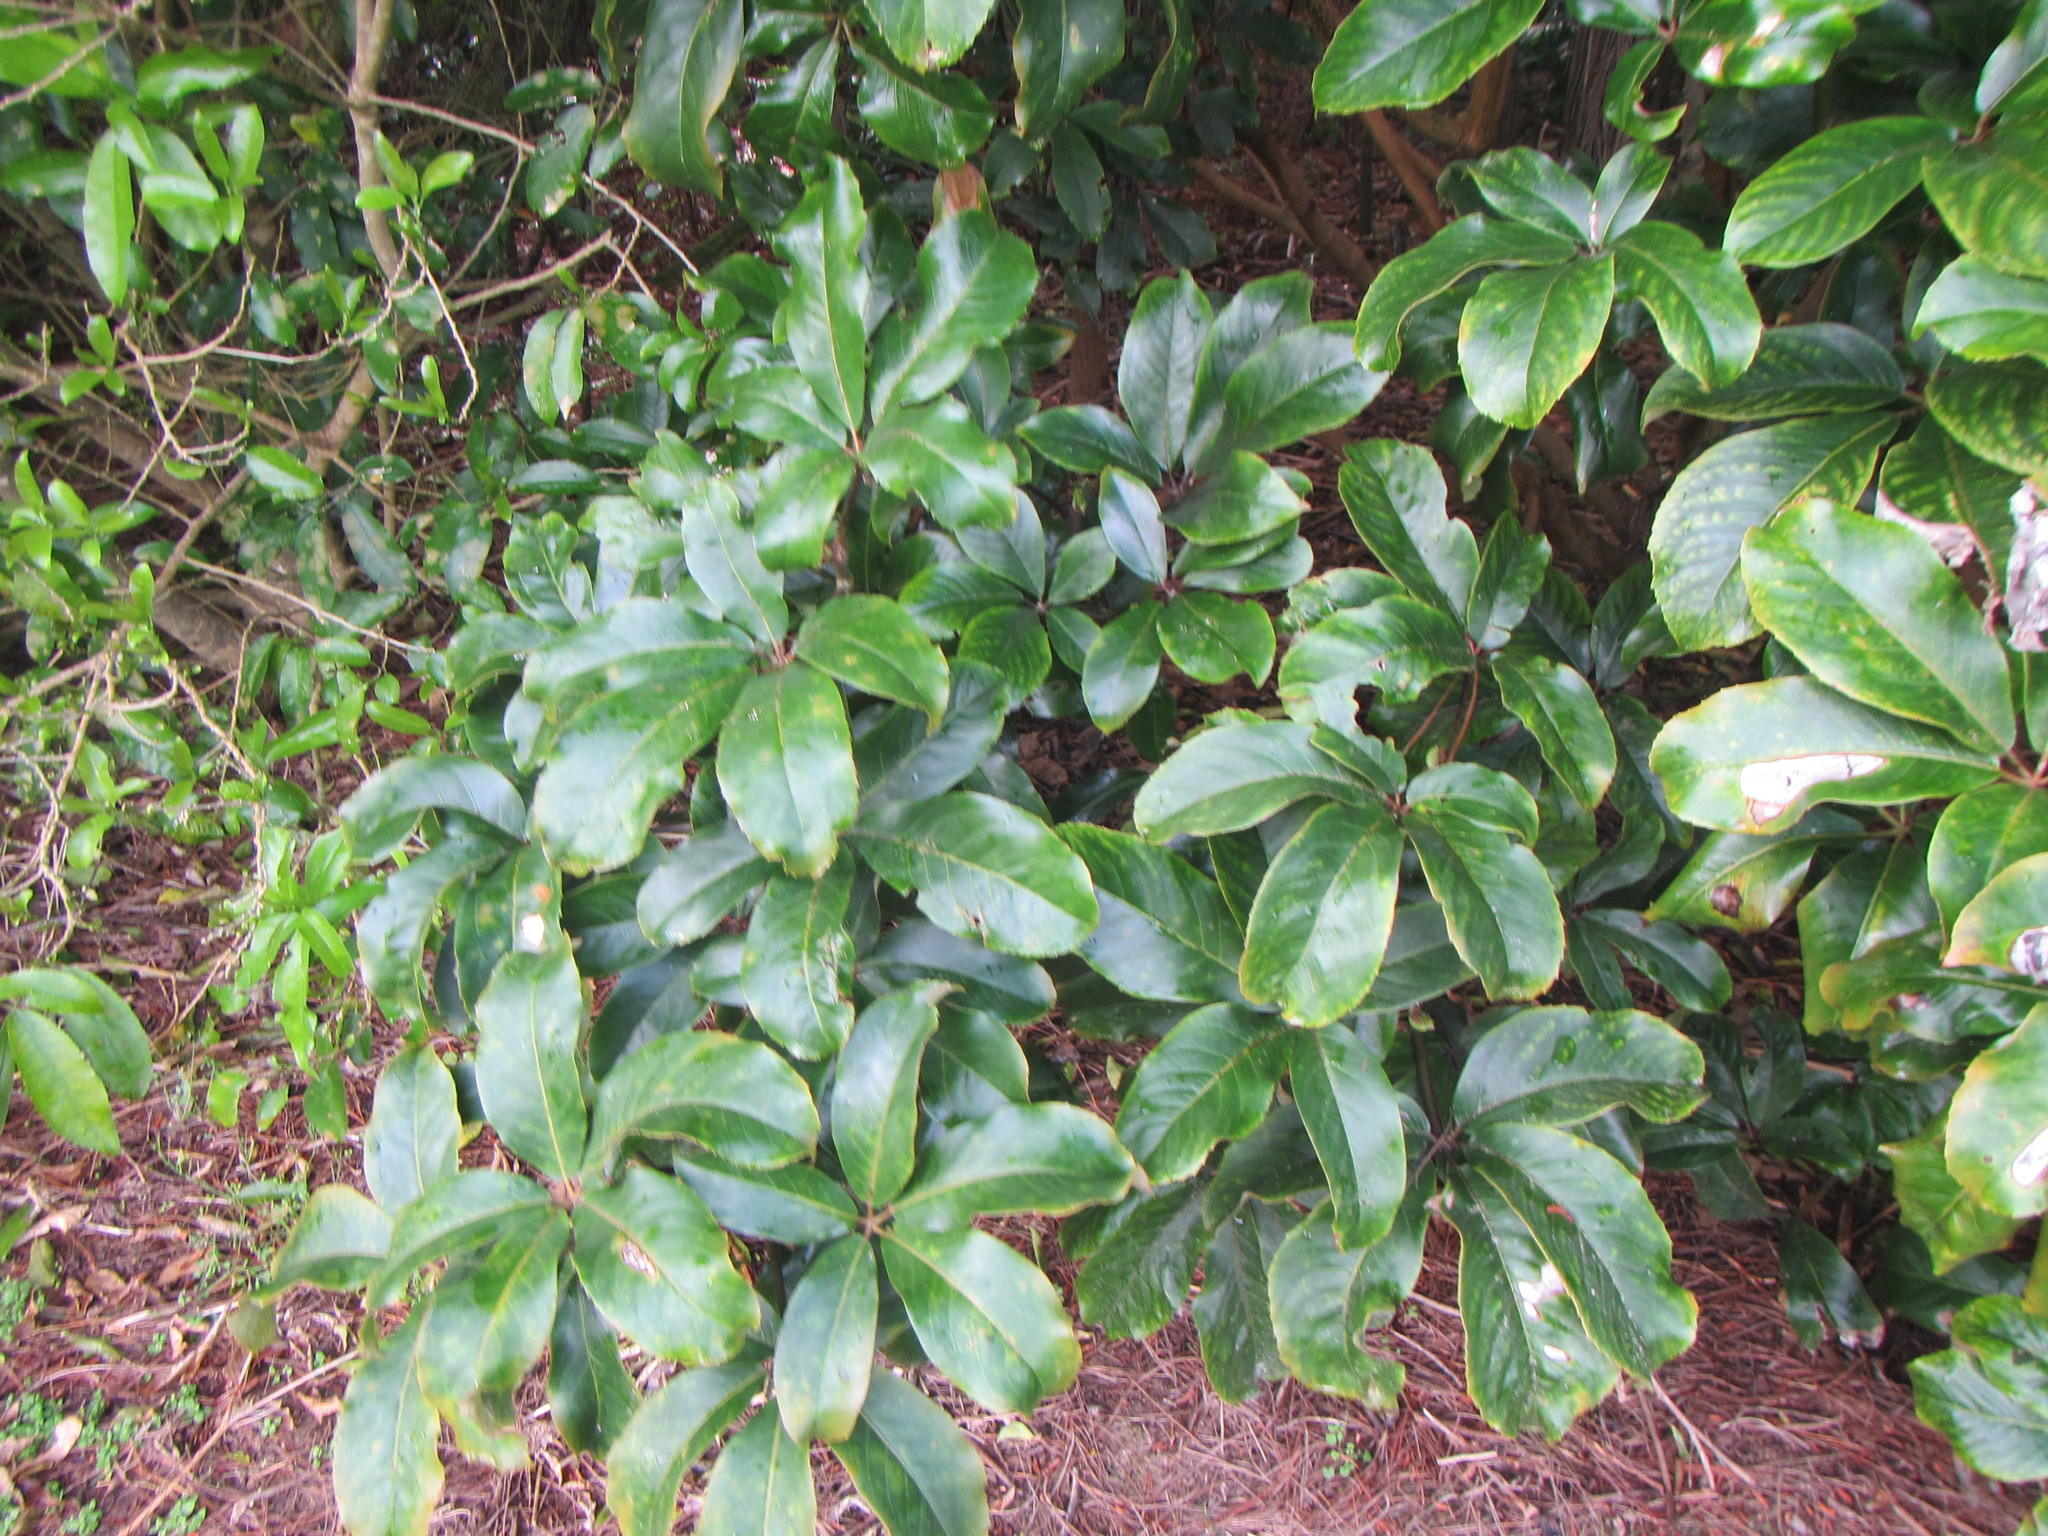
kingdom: Plantae
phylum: Tracheophyta
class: Magnoliopsida
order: Apiales
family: Araliaceae
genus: Neopanax
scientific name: Neopanax laetus
